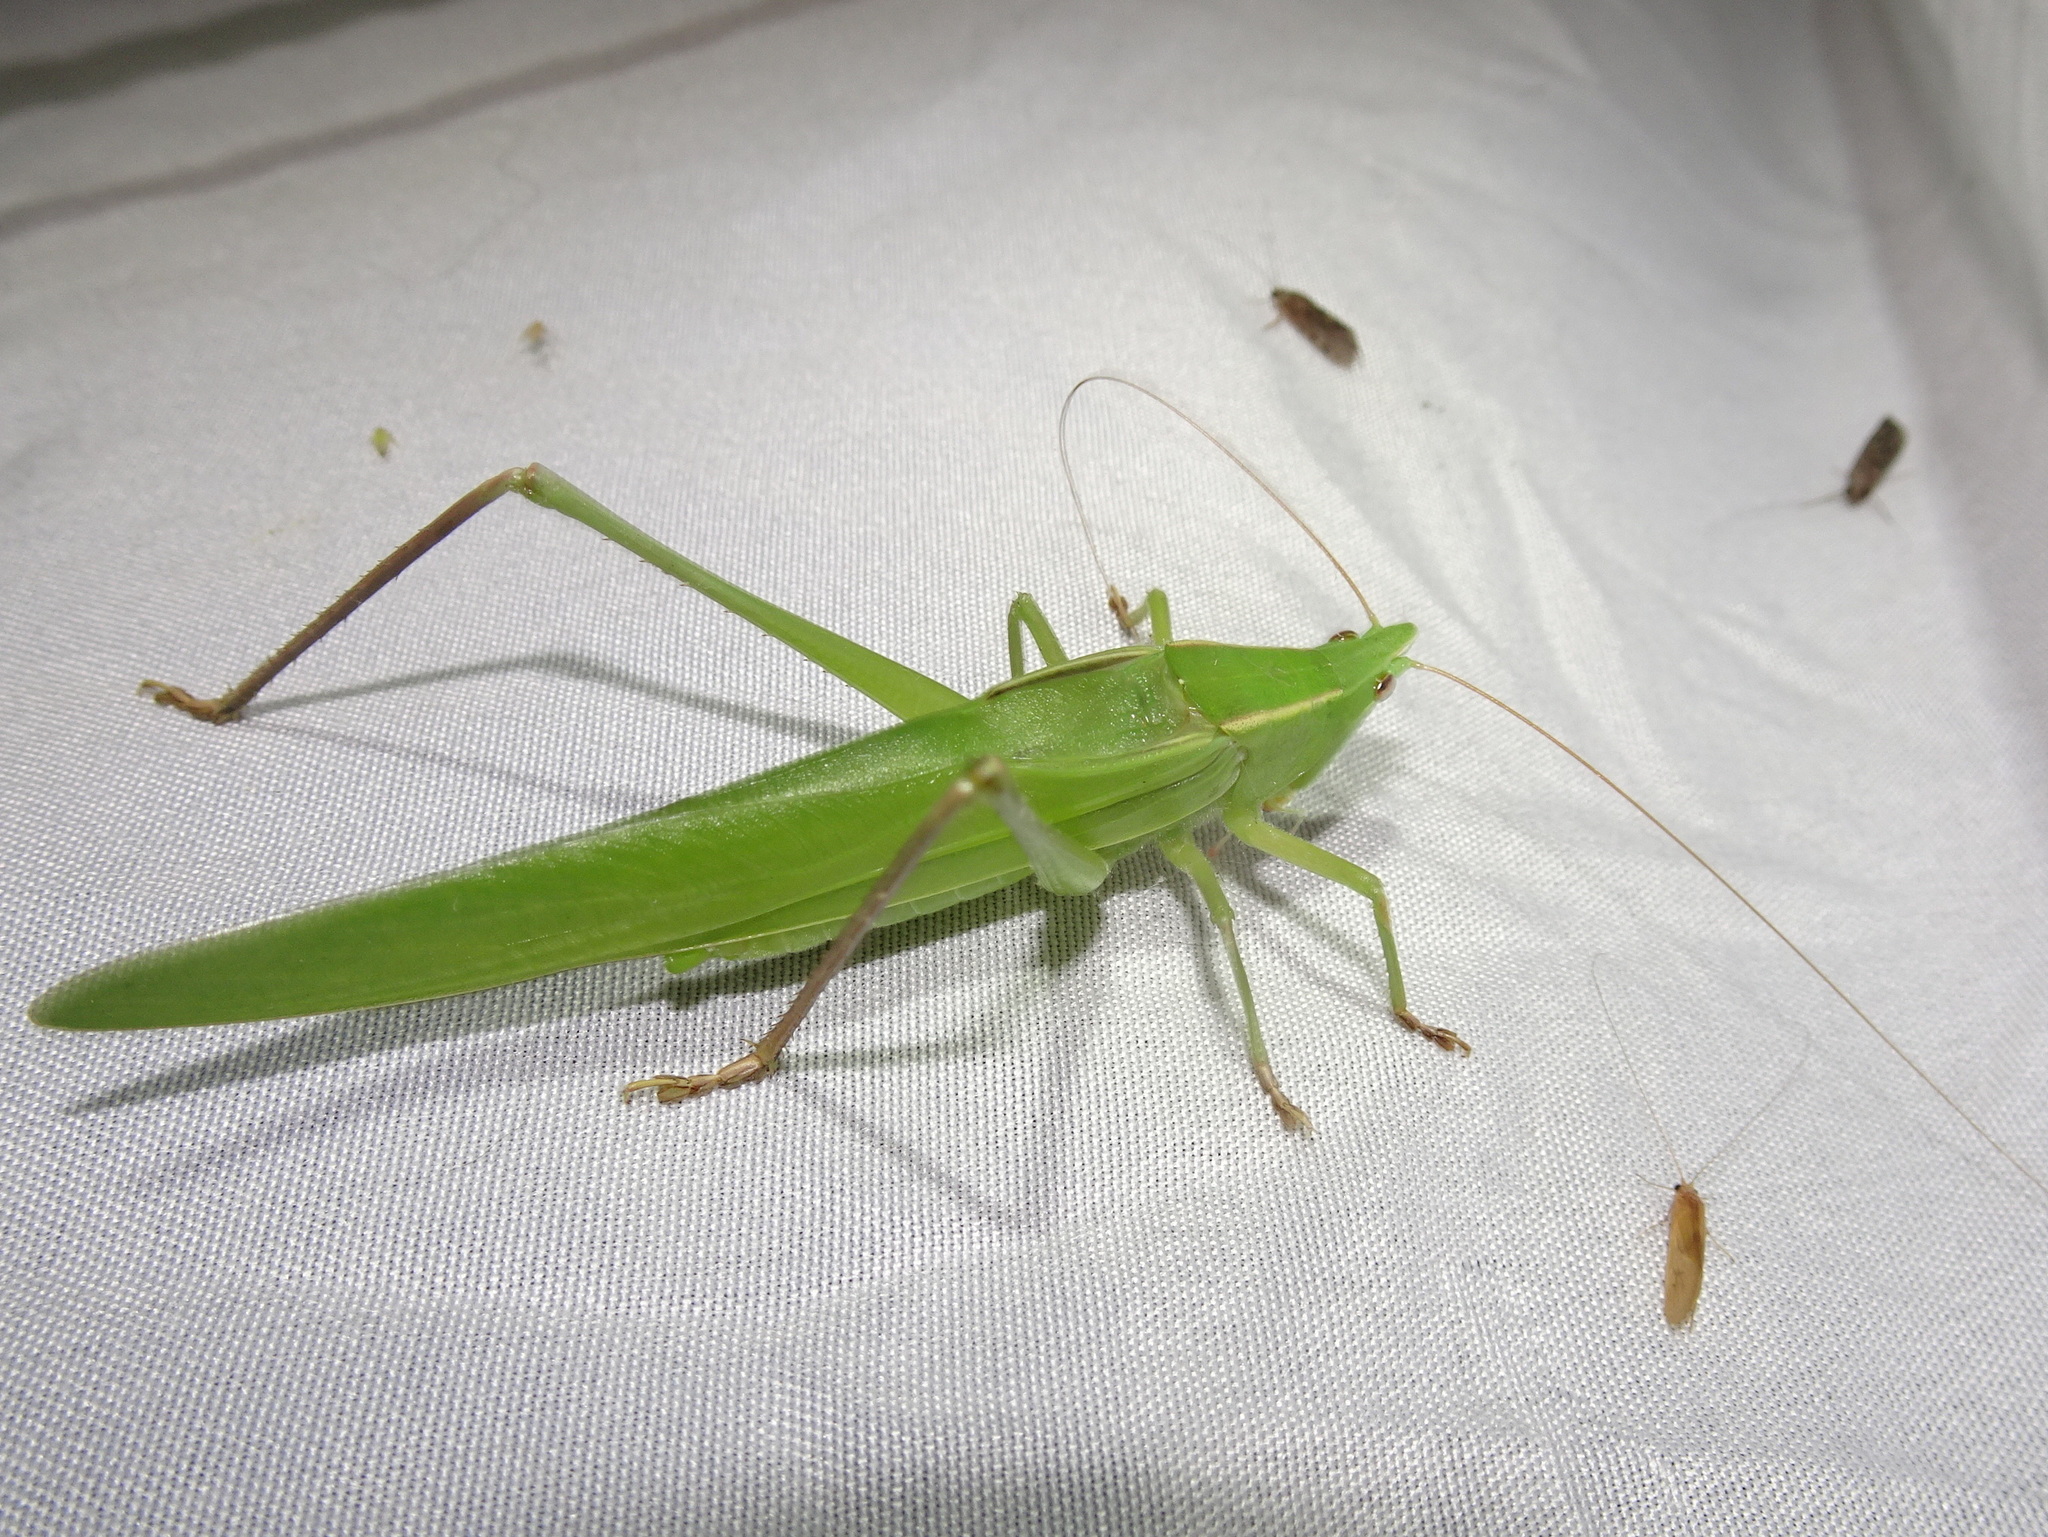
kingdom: Animalia
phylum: Arthropoda
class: Insecta
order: Orthoptera
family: Tettigoniidae
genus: Neoconocephalus
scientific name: Neoconocephalus ensiger
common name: Swordbearer
